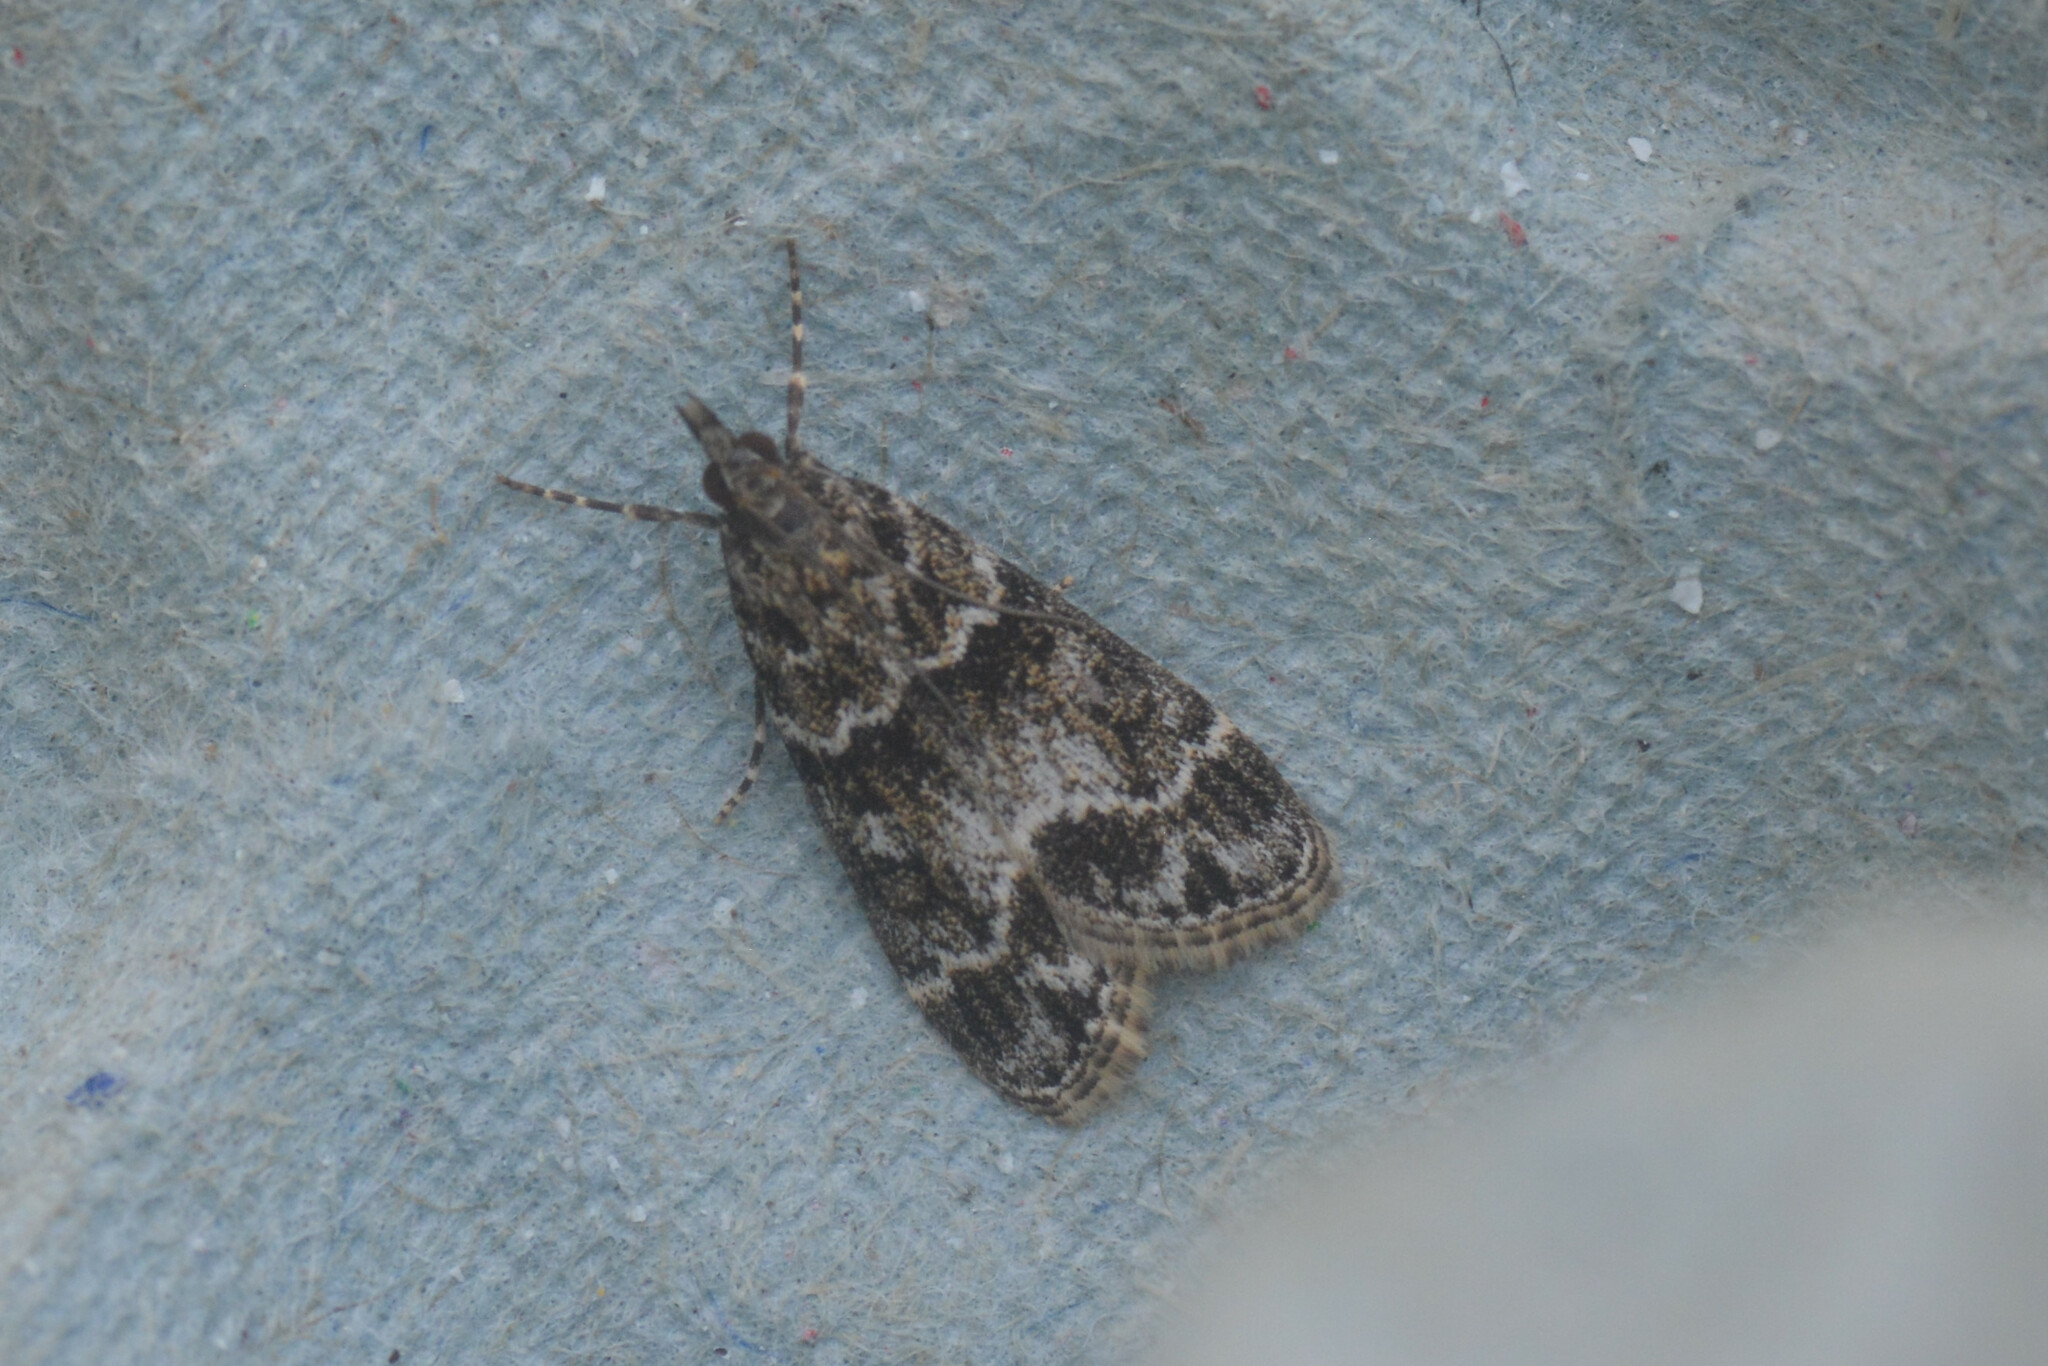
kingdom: Animalia
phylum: Arthropoda
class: Insecta
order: Lepidoptera
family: Crambidae
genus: Eudonia
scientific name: Eudonia mercurella
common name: Small grey
